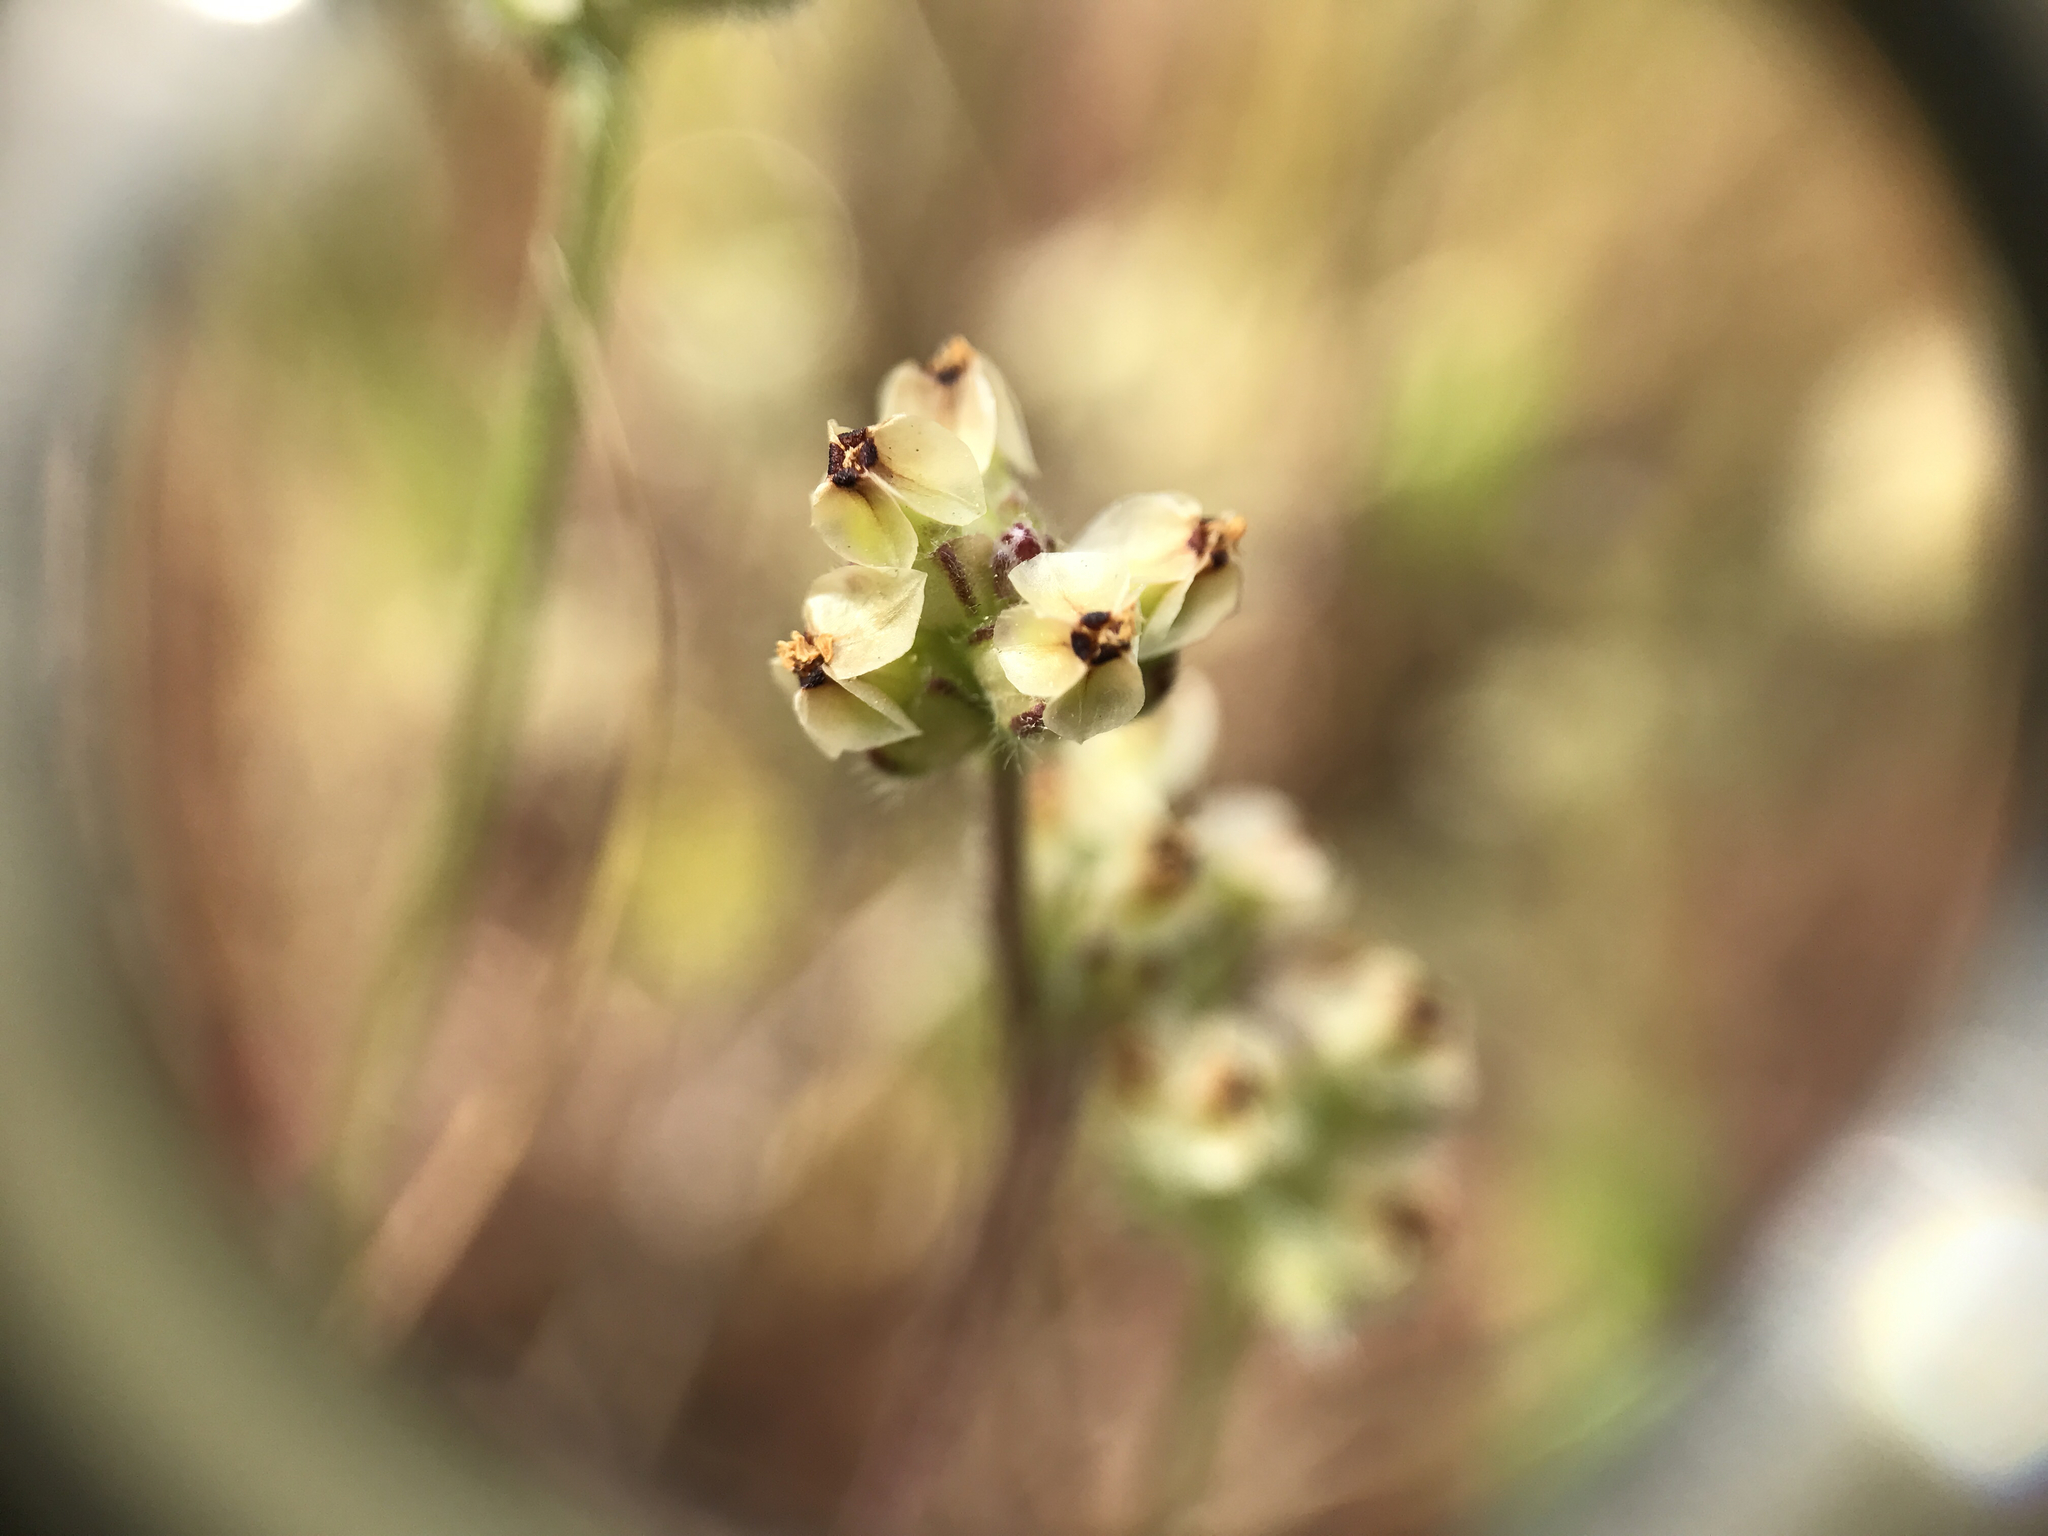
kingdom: Plantae
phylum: Tracheophyta
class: Magnoliopsida
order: Lamiales
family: Plantaginaceae
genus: Plantago
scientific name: Plantago erecta
